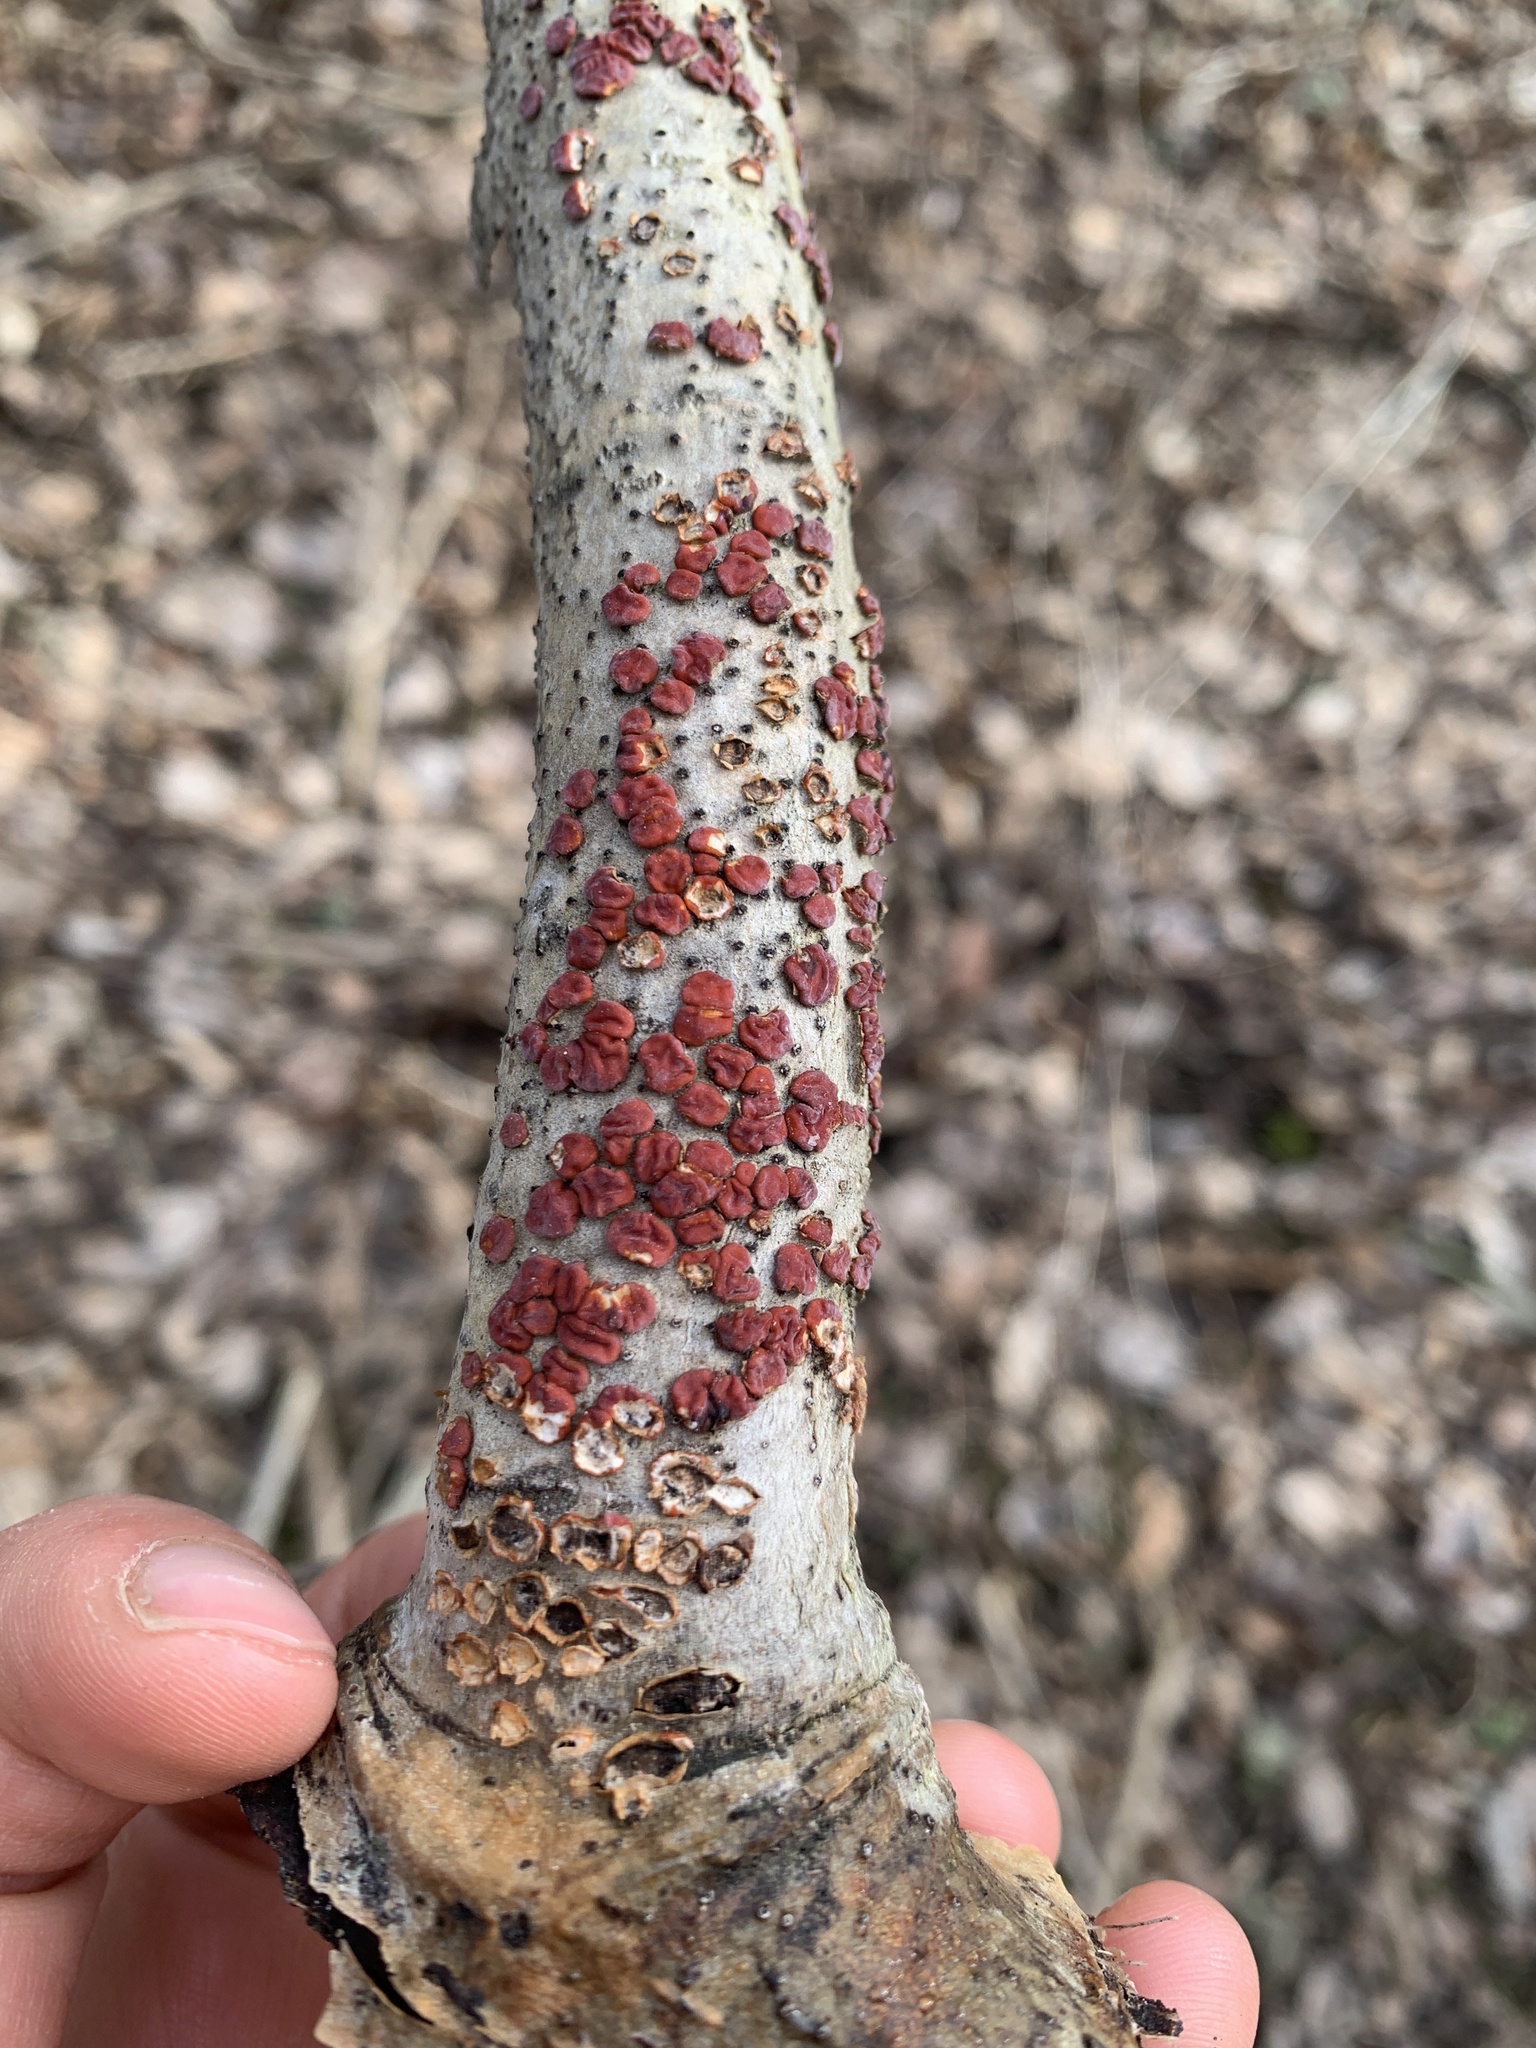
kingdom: Fungi
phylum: Basidiomycota
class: Agaricomycetes
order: Russulales
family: Peniophoraceae
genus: Peniophora
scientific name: Peniophora rufa
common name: Red tree brain fungus
